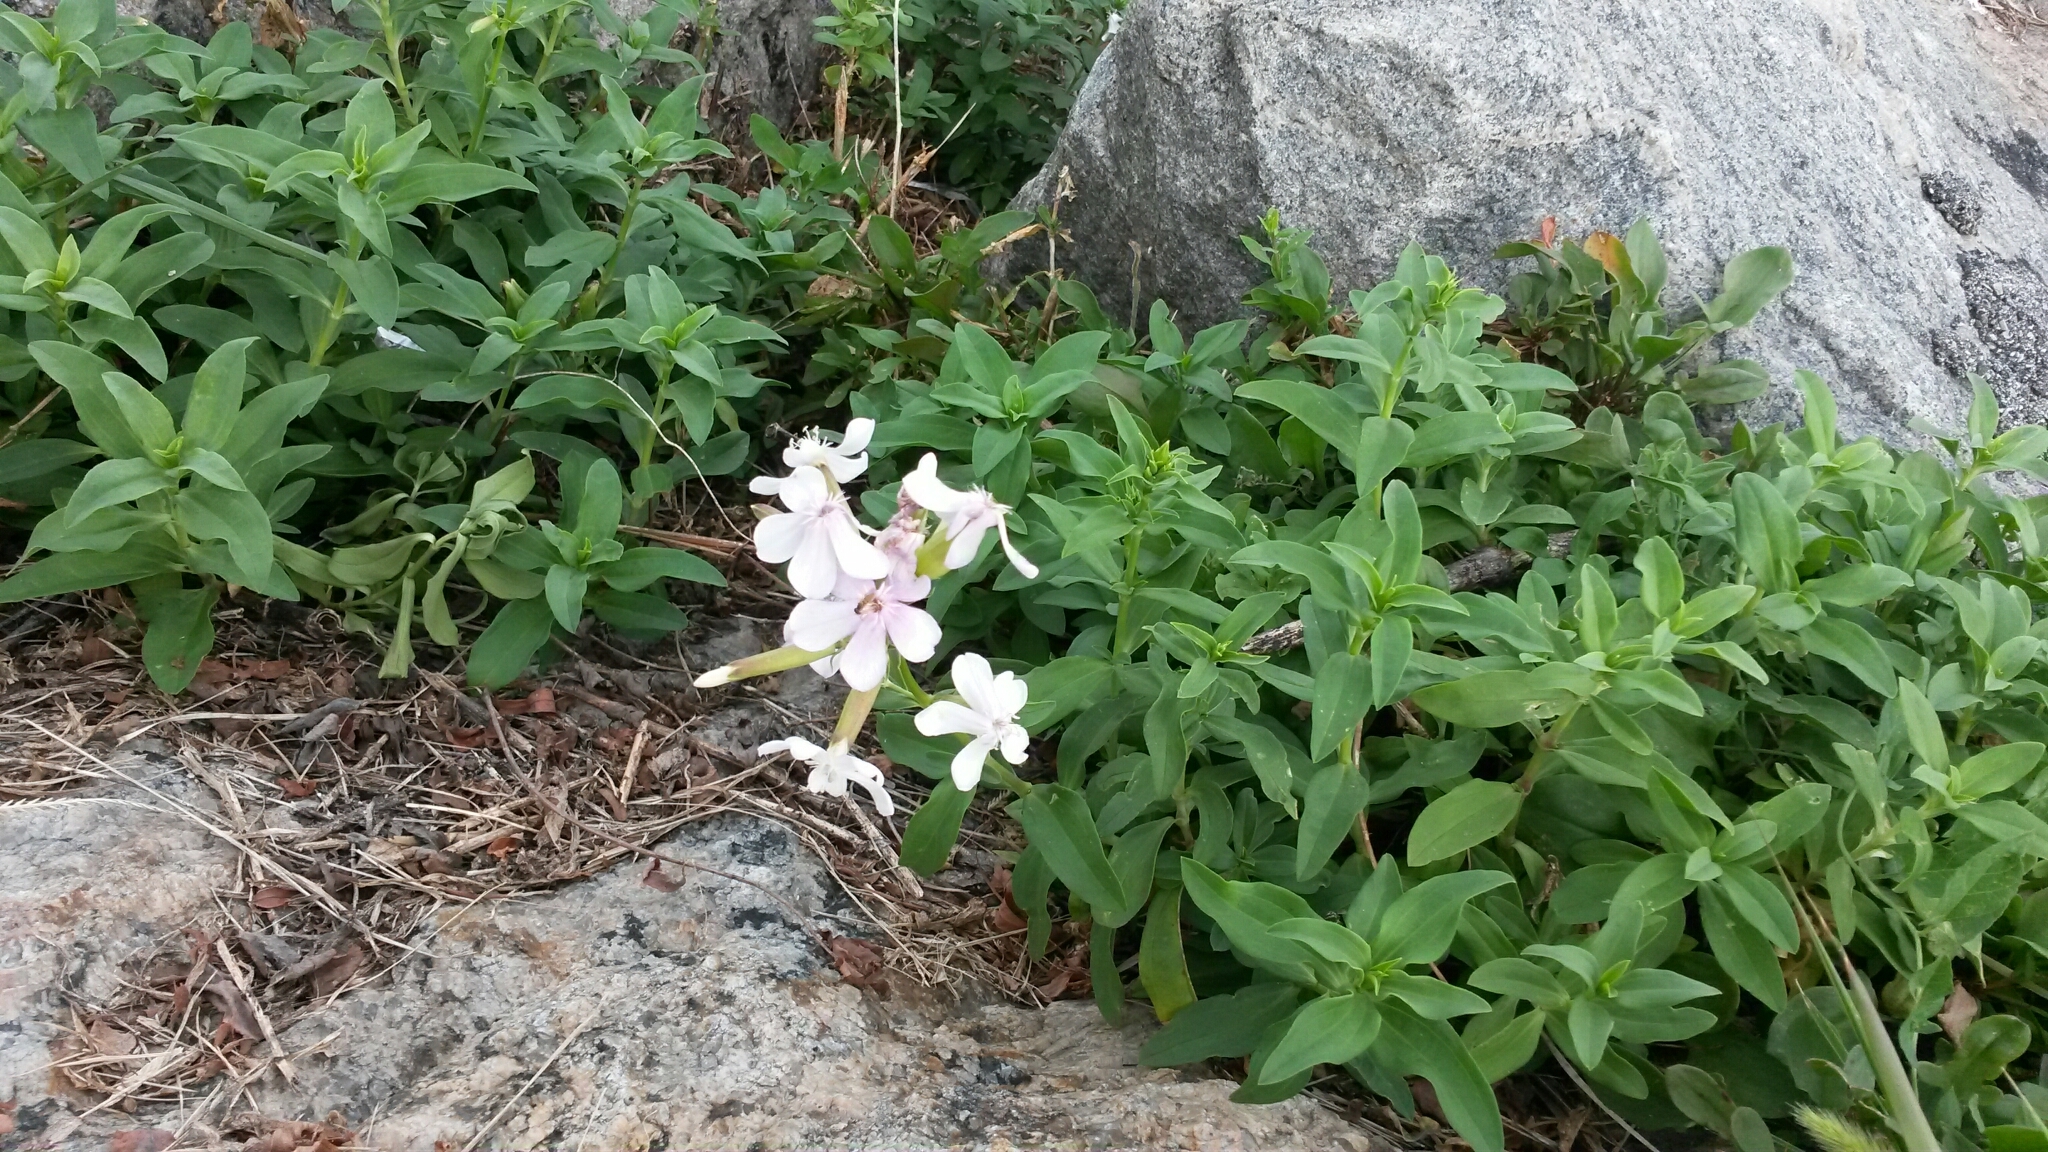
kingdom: Plantae
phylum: Tracheophyta
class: Magnoliopsida
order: Caryophyllales
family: Caryophyllaceae
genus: Saponaria
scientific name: Saponaria officinalis
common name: Soapwort
